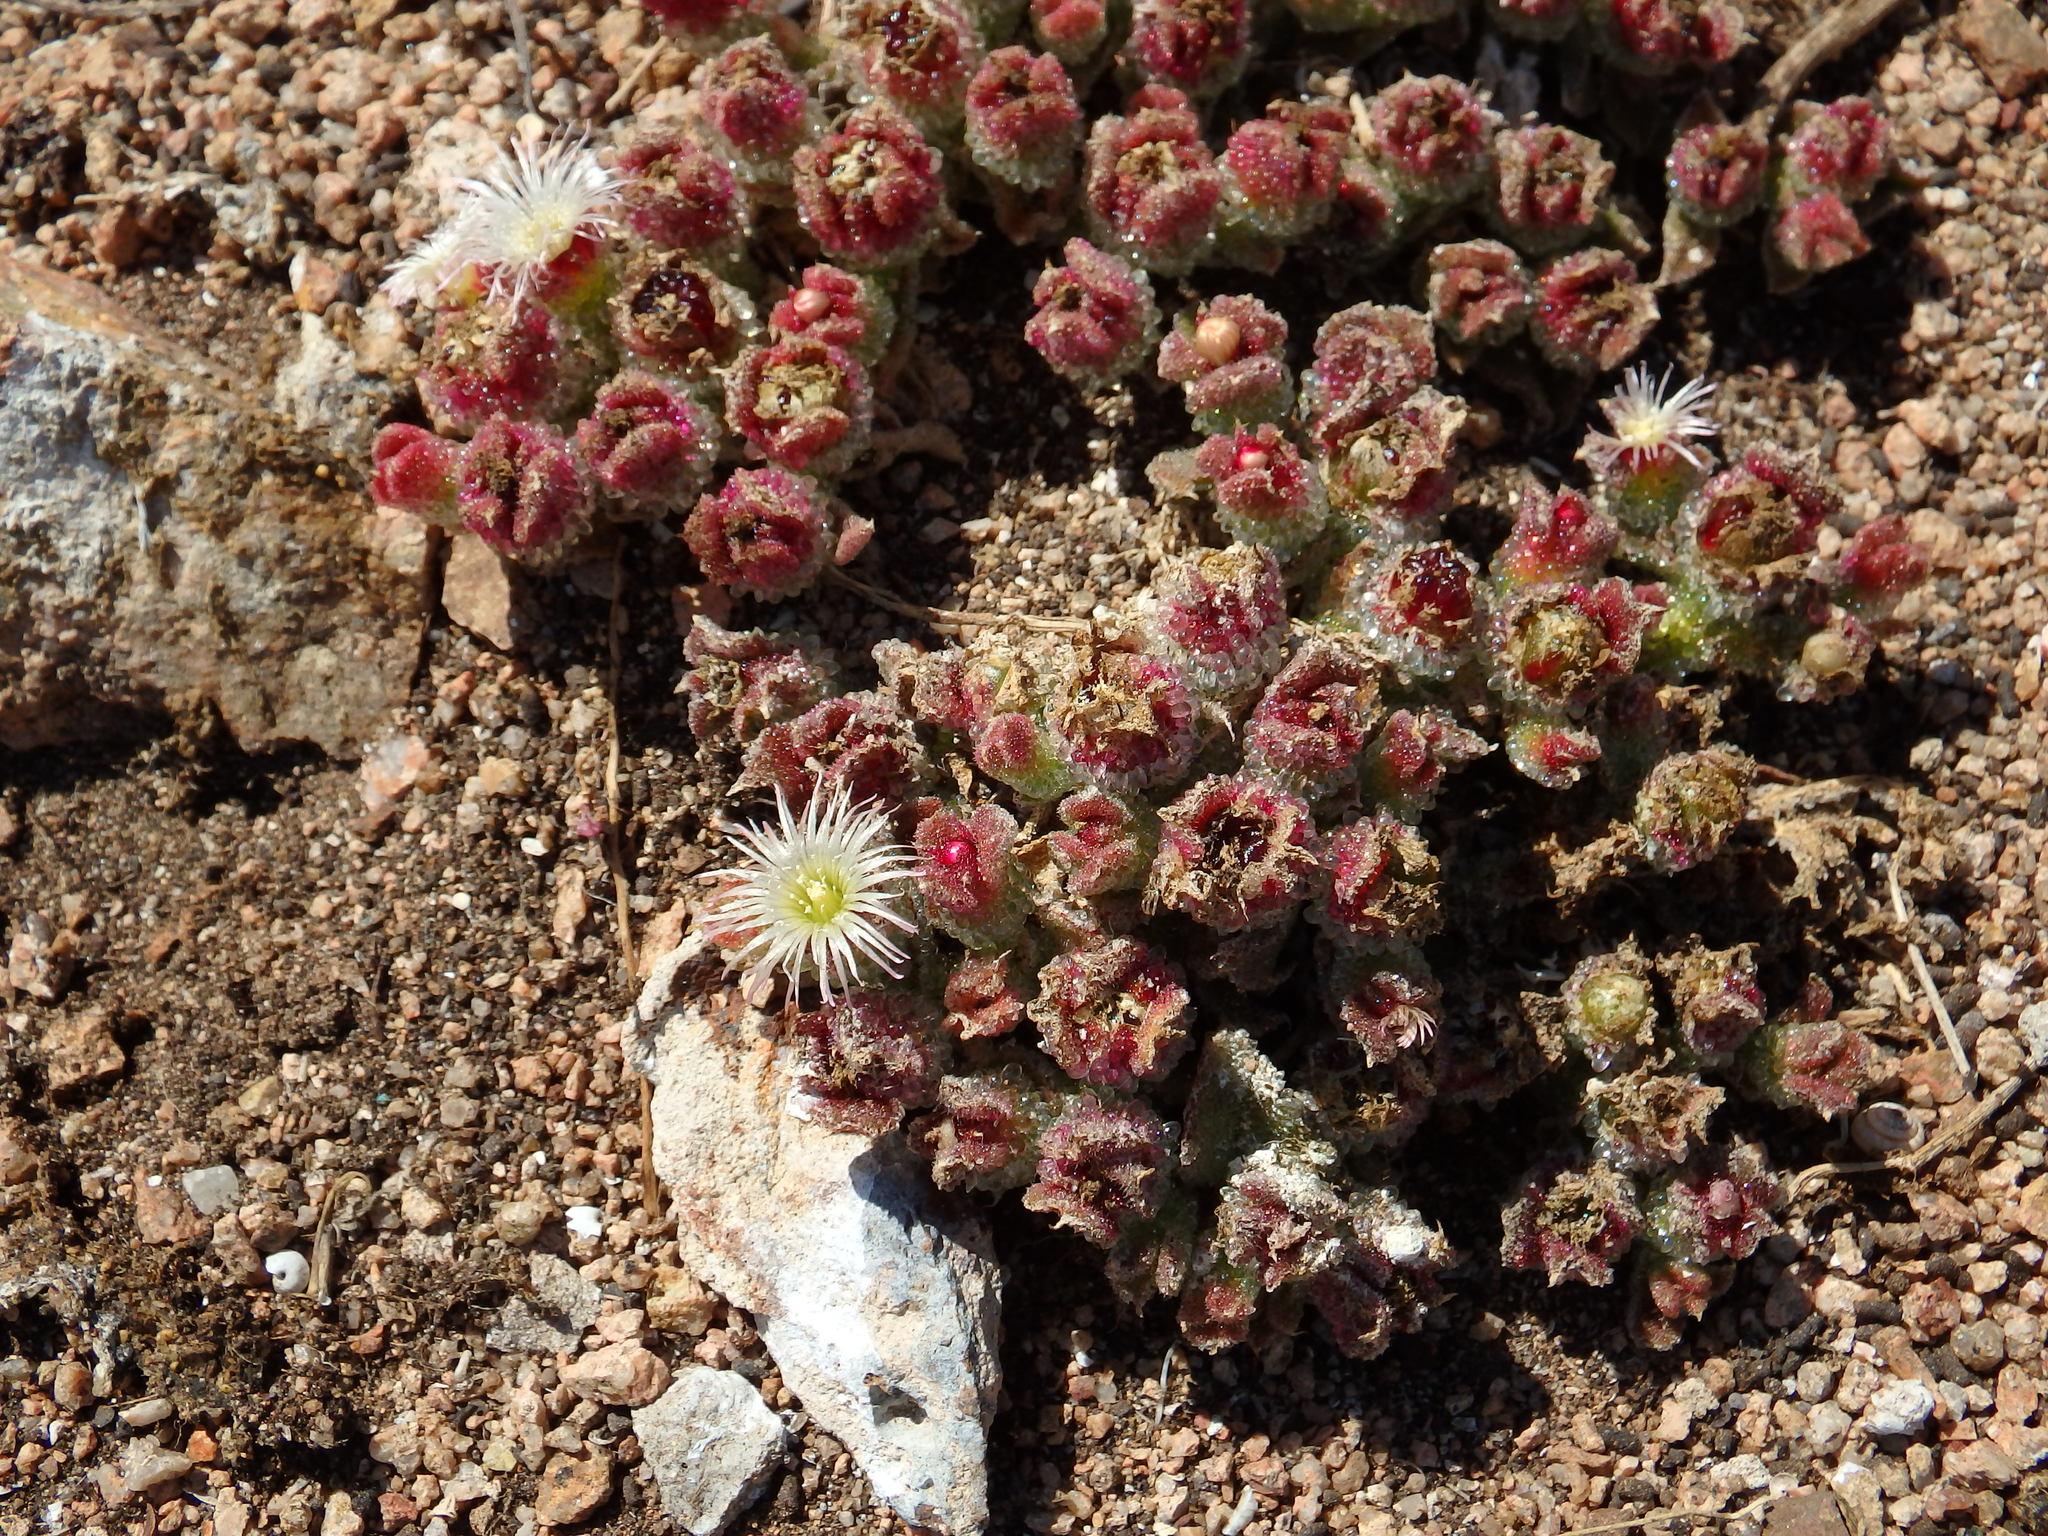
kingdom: Plantae
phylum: Tracheophyta
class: Magnoliopsida
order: Caryophyllales
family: Aizoaceae
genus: Mesembryanthemum
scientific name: Mesembryanthemum crystallinum
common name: Common iceplant
